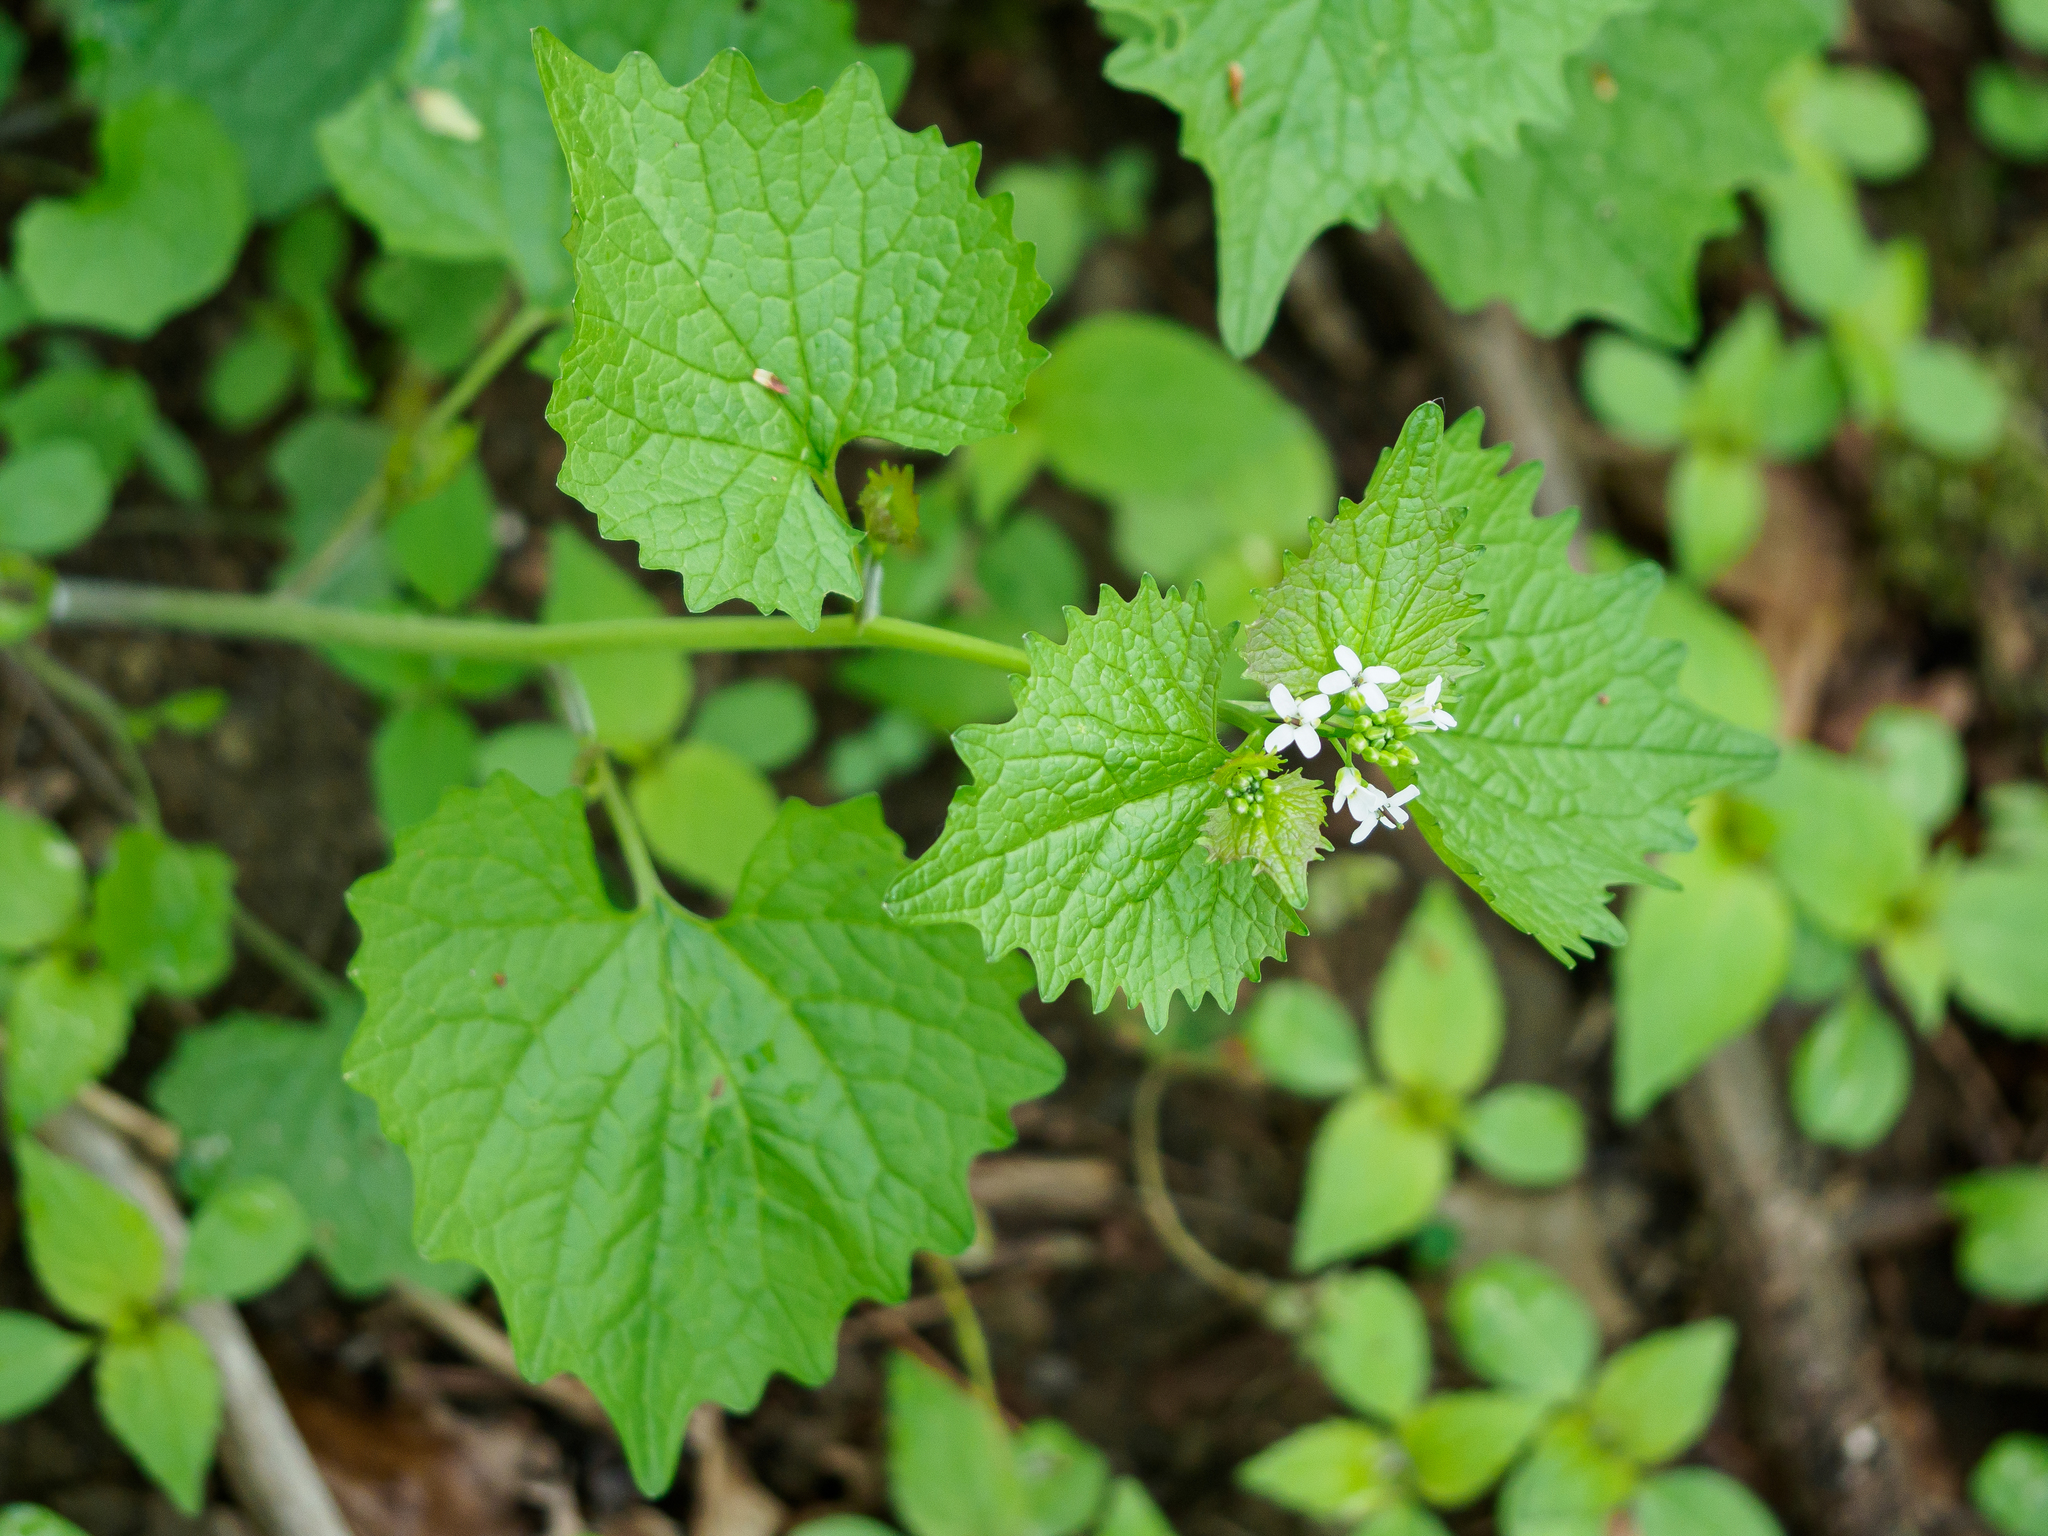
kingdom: Plantae
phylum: Tracheophyta
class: Magnoliopsida
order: Brassicales
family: Brassicaceae
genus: Alliaria
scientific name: Alliaria petiolata
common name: Garlic mustard
